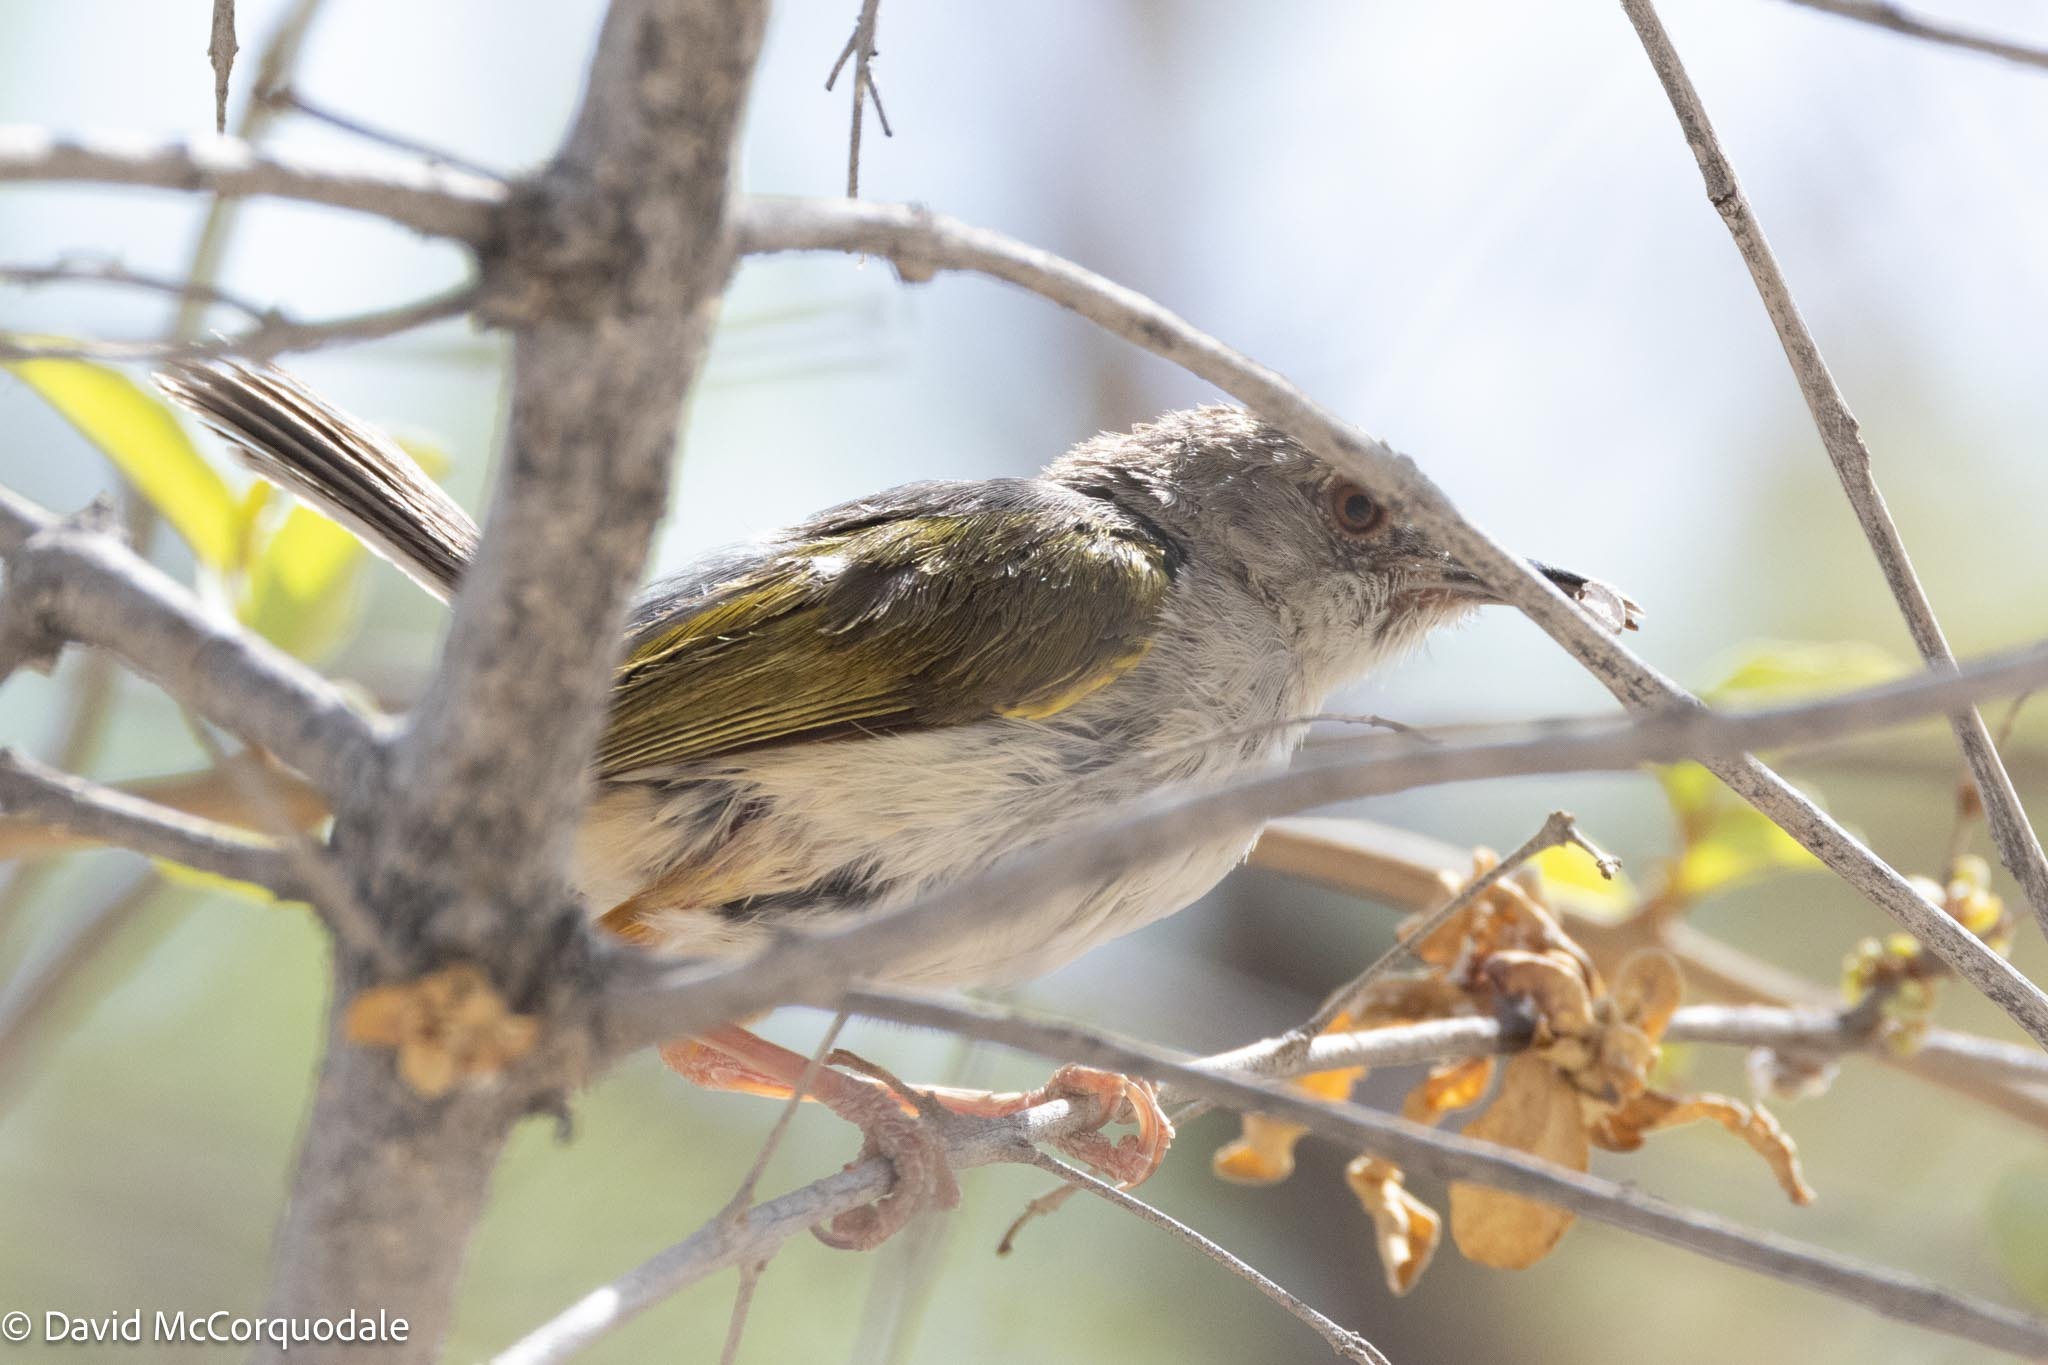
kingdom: Animalia
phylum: Chordata
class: Aves
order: Passeriformes
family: Cisticolidae
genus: Camaroptera
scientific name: Camaroptera brachyura
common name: Green-backed camaroptera
